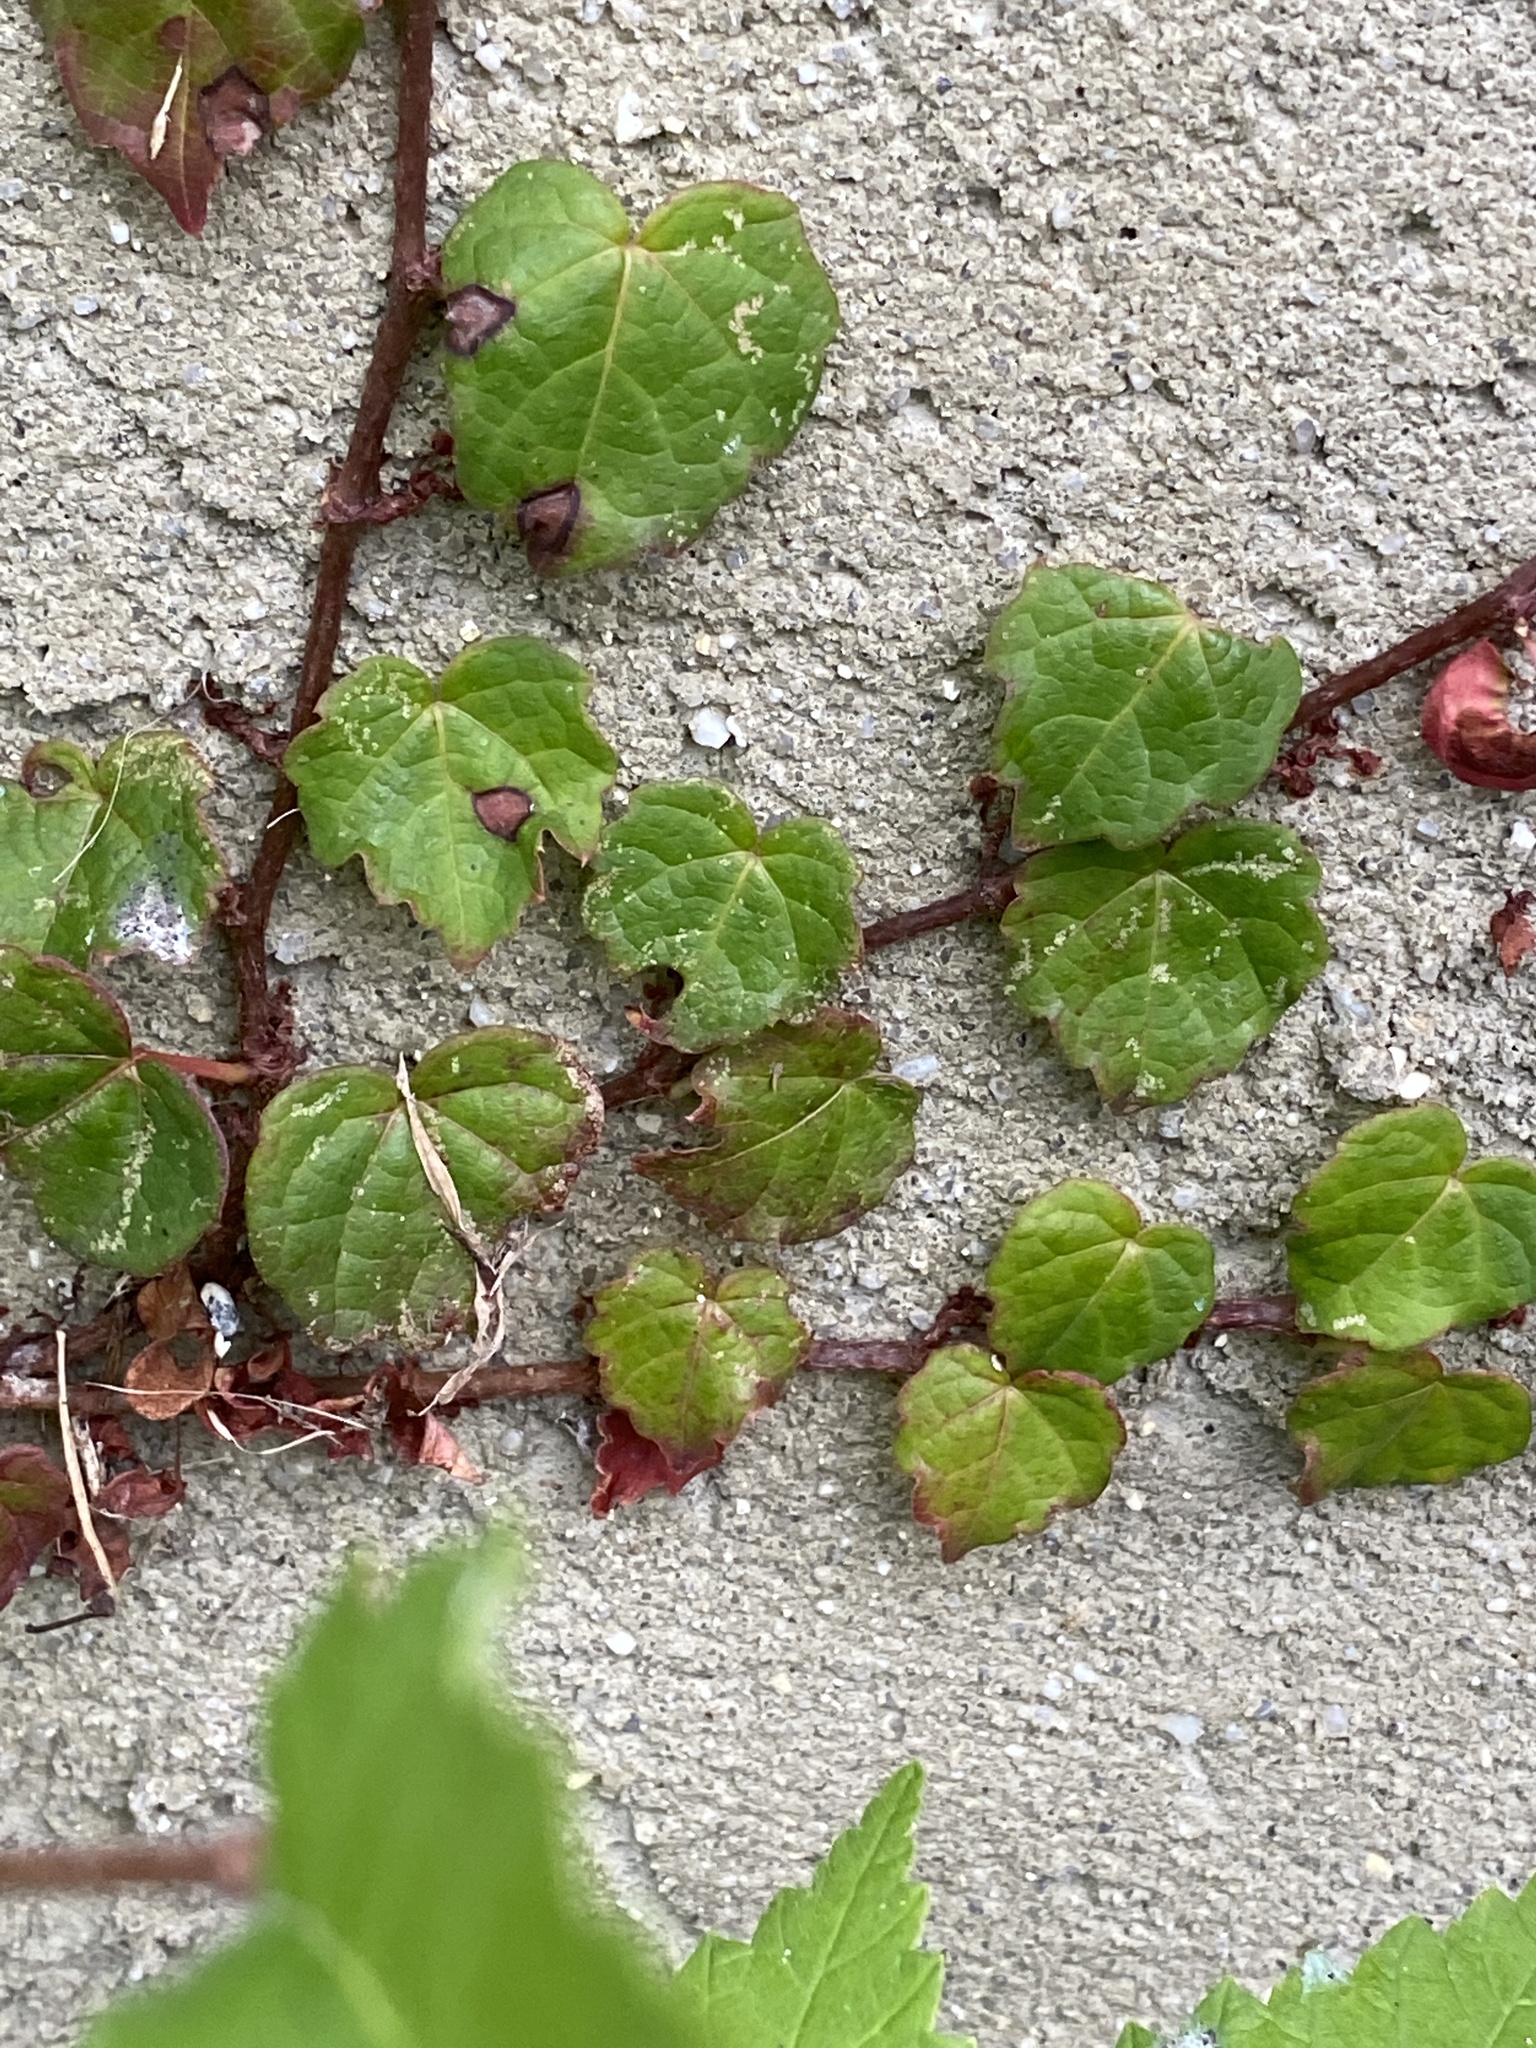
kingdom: Plantae
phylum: Tracheophyta
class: Magnoliopsida
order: Vitales
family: Vitaceae
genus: Parthenocissus
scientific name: Parthenocissus tricuspidata
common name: Boston ivy
